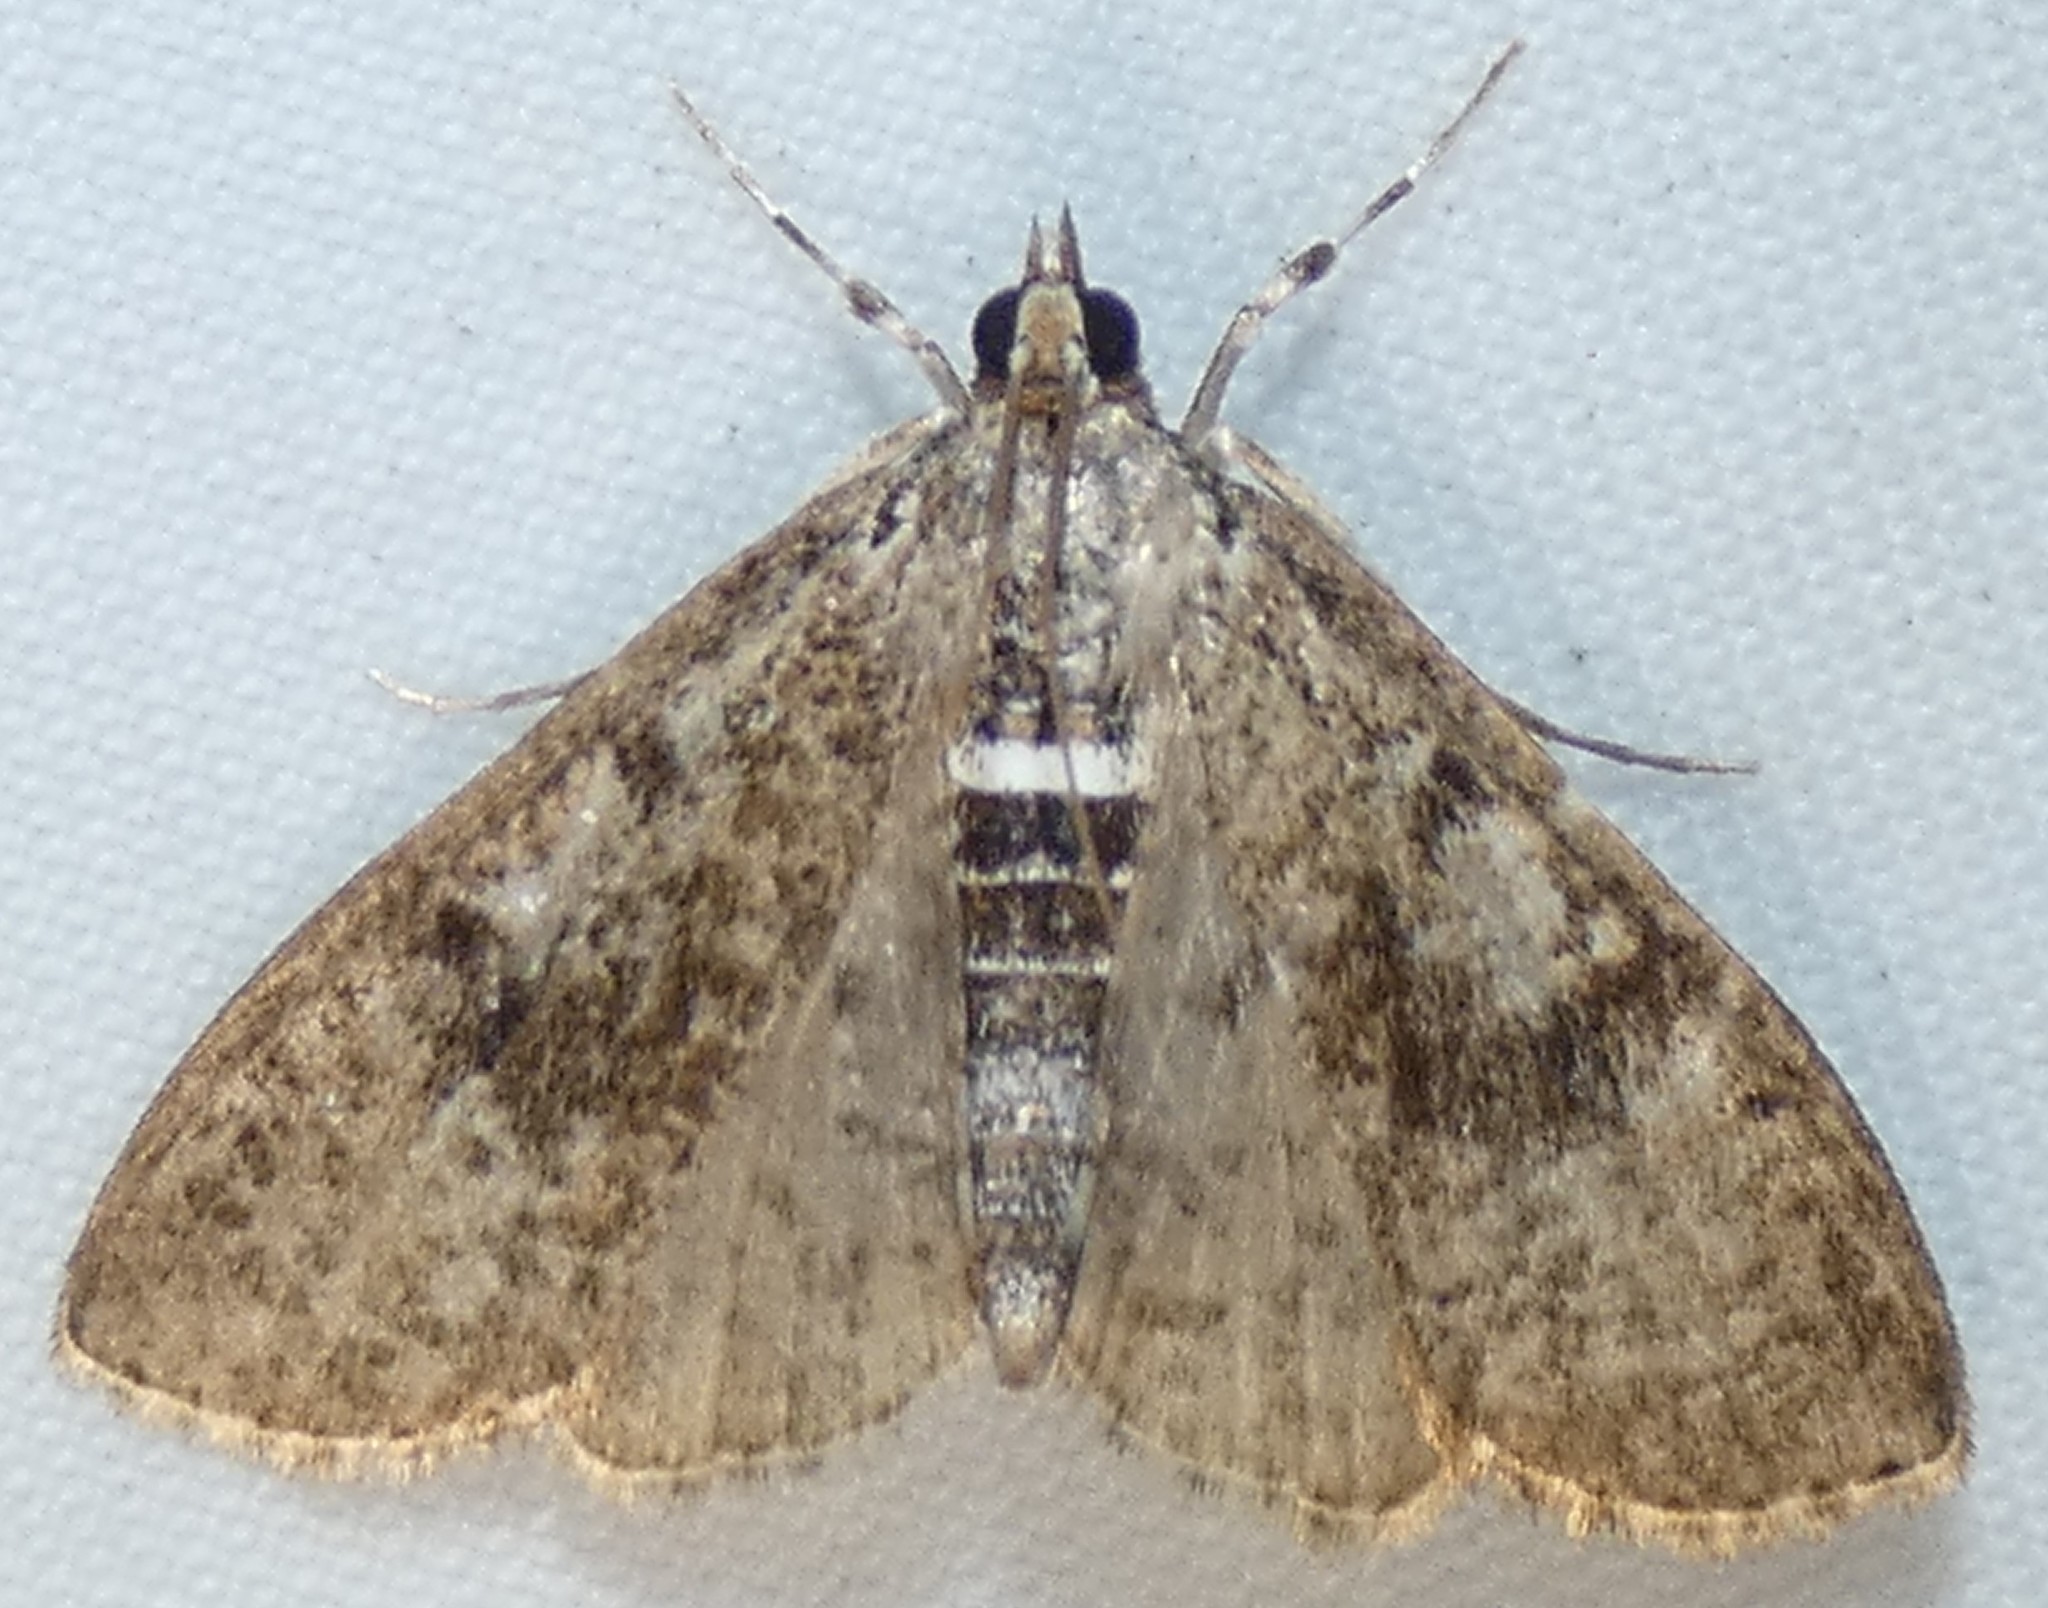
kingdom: Animalia
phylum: Arthropoda
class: Insecta
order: Lepidoptera
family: Crambidae
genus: Palpita
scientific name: Palpita magniferalis
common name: Splendid palpita moth
